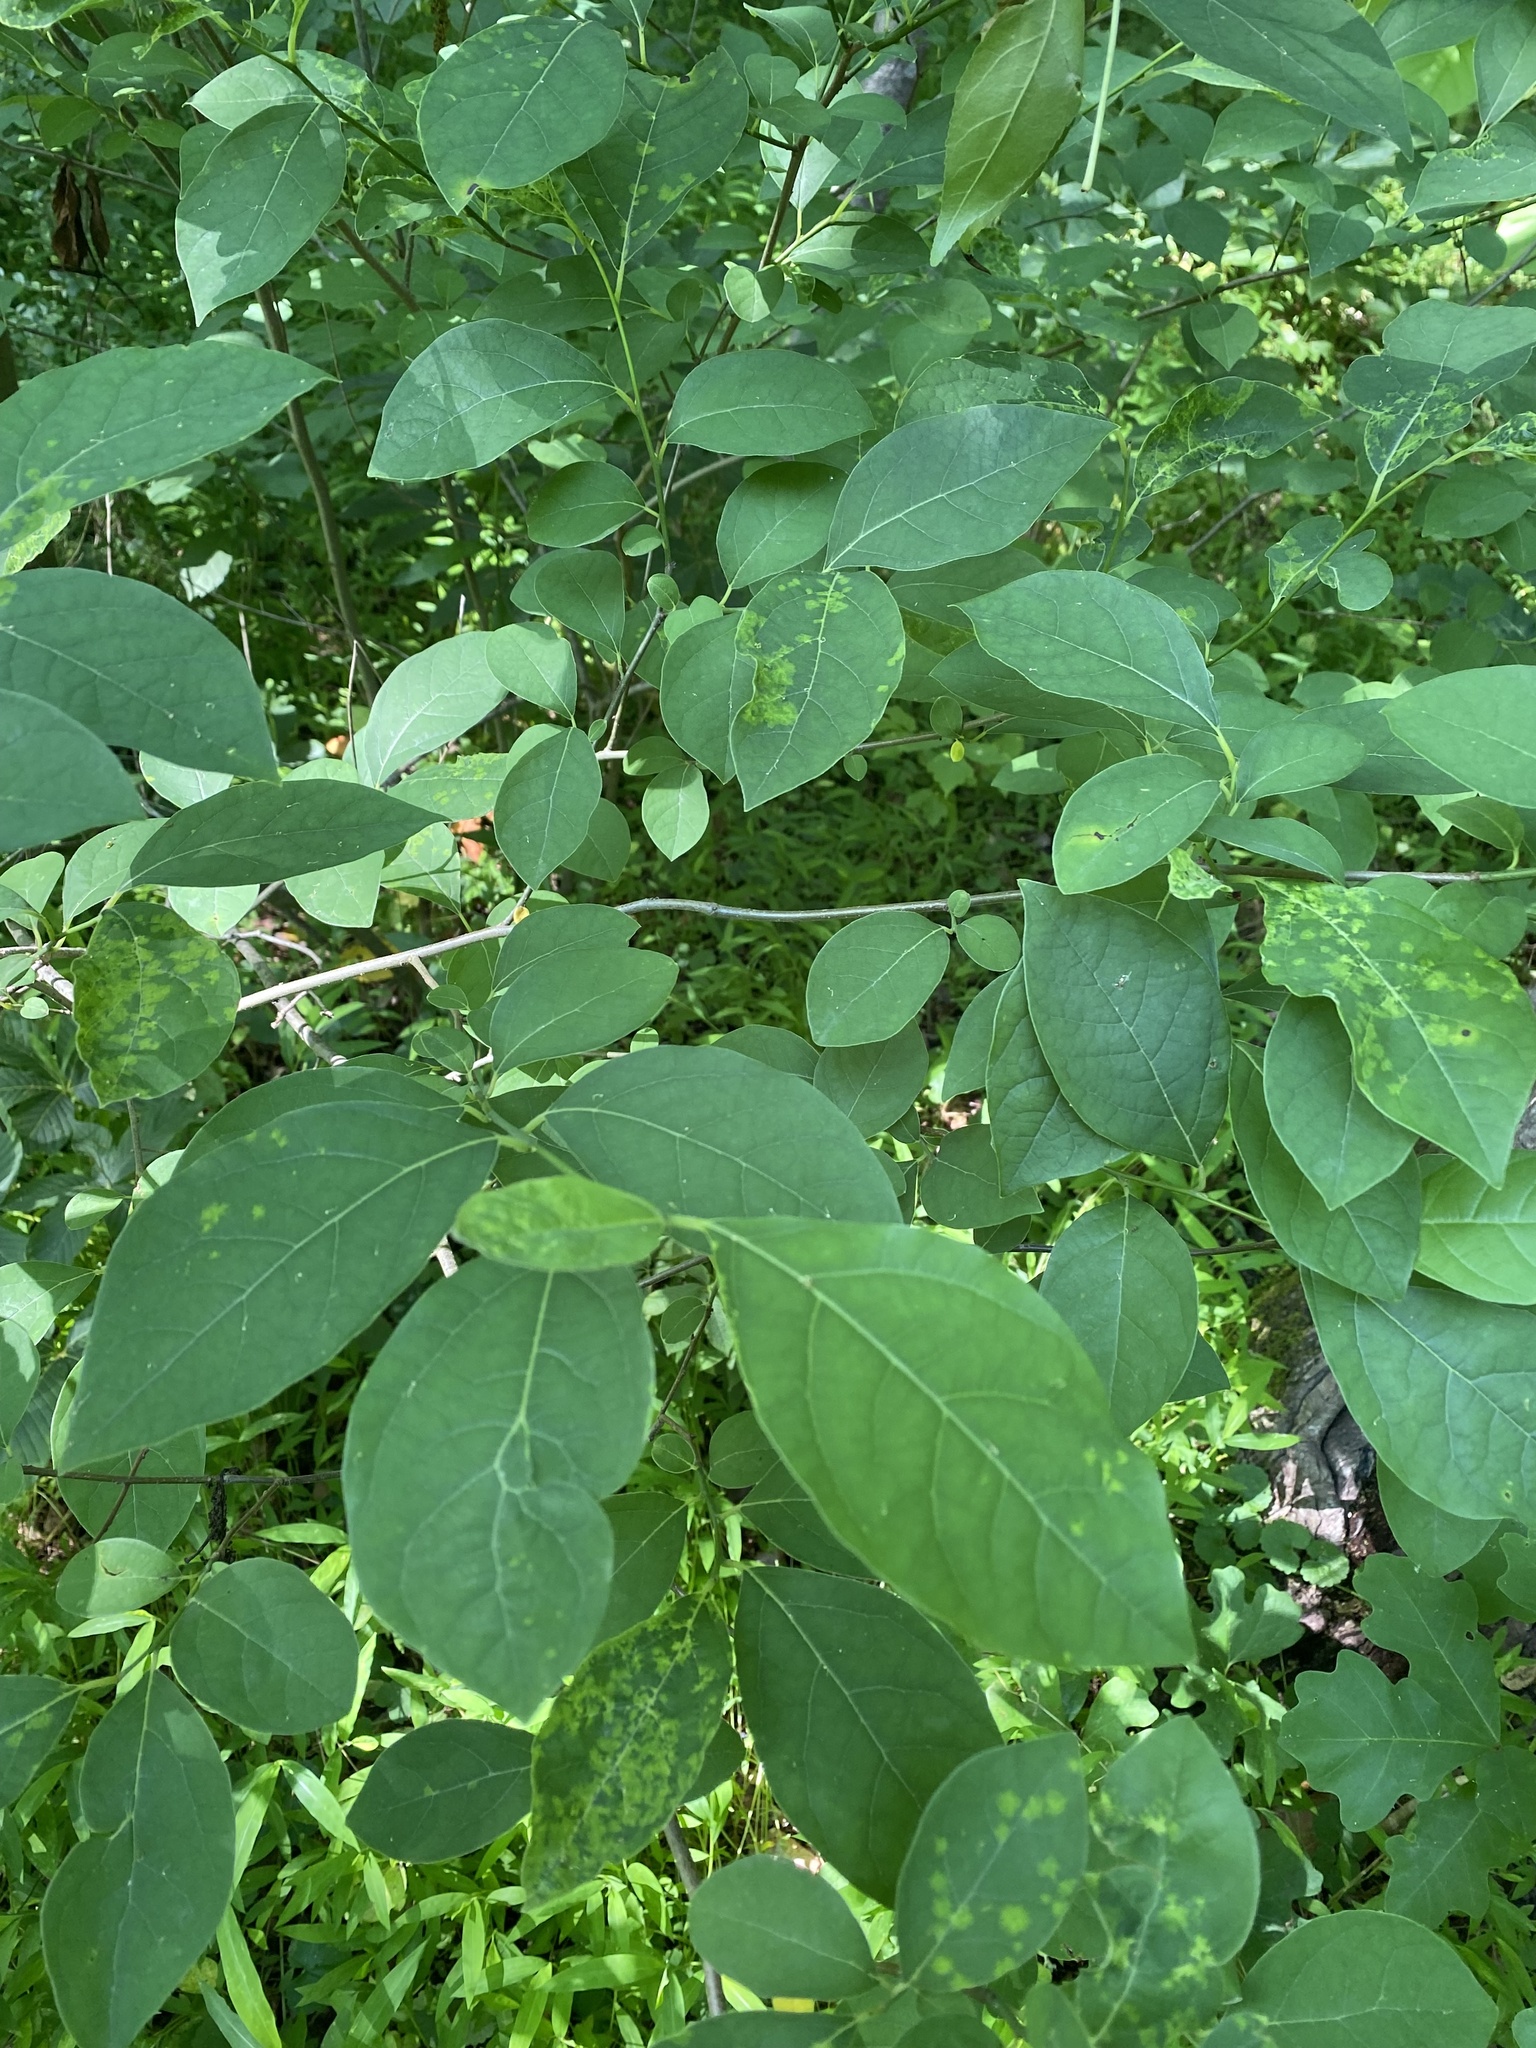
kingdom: Plantae
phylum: Tracheophyta
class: Magnoliopsida
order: Laurales
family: Lauraceae
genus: Lindera
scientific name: Lindera benzoin
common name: Spicebush
